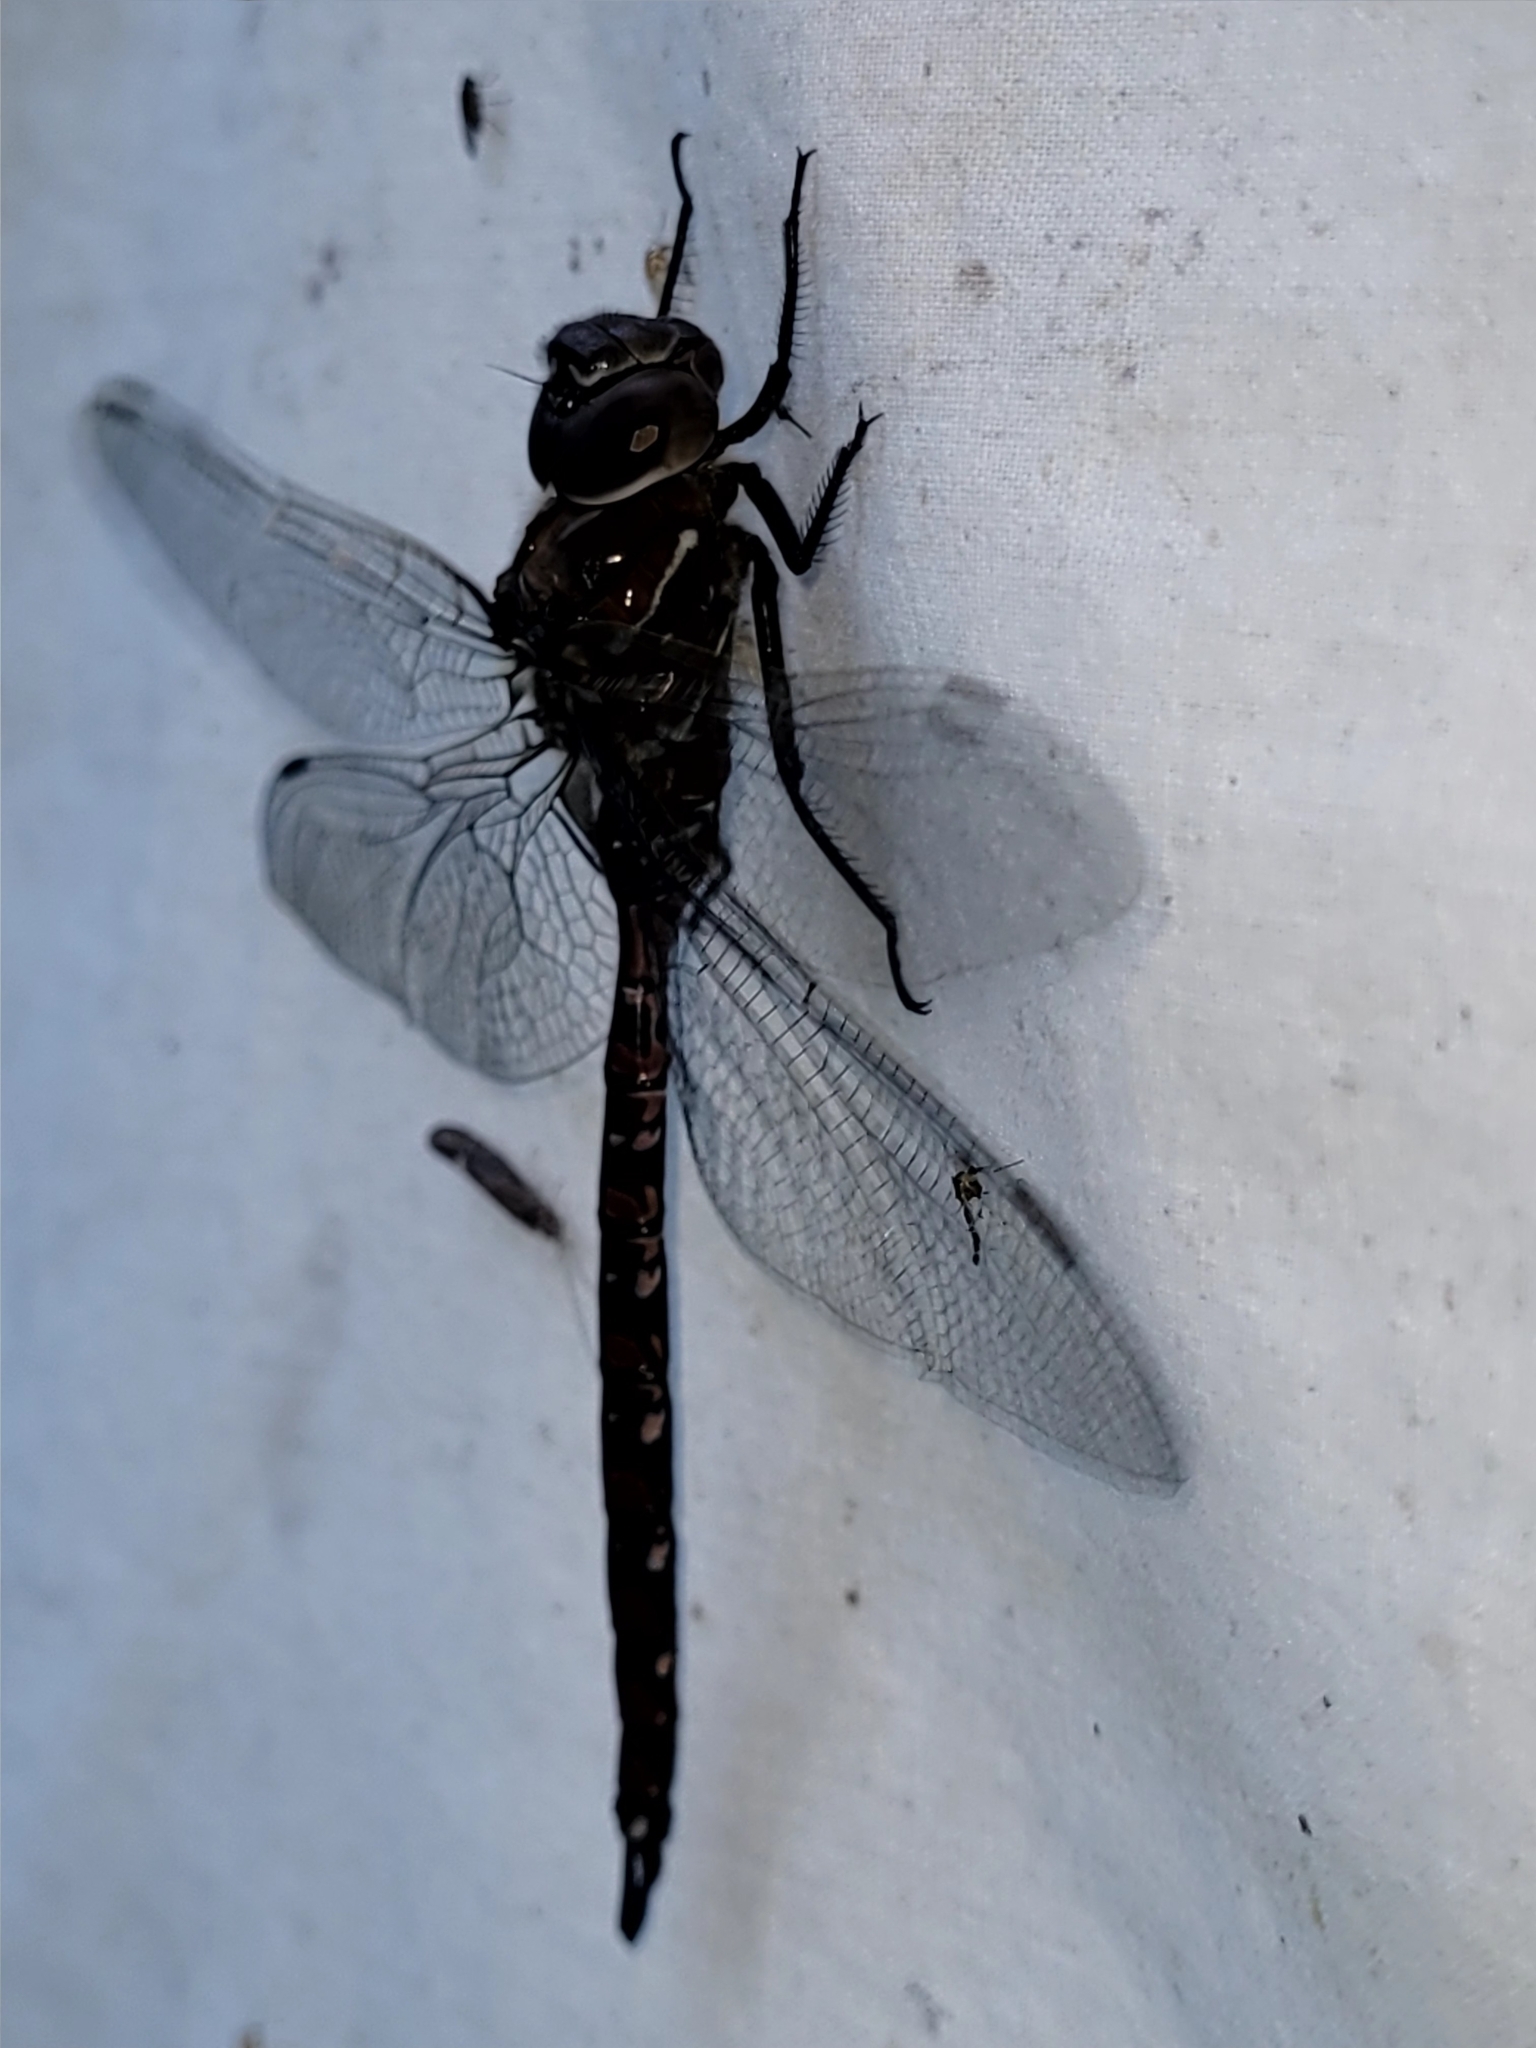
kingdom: Animalia
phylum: Arthropoda
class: Insecta
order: Odonata
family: Aeshnidae
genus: Aeshna
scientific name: Aeshna interrupta
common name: Variable darner
